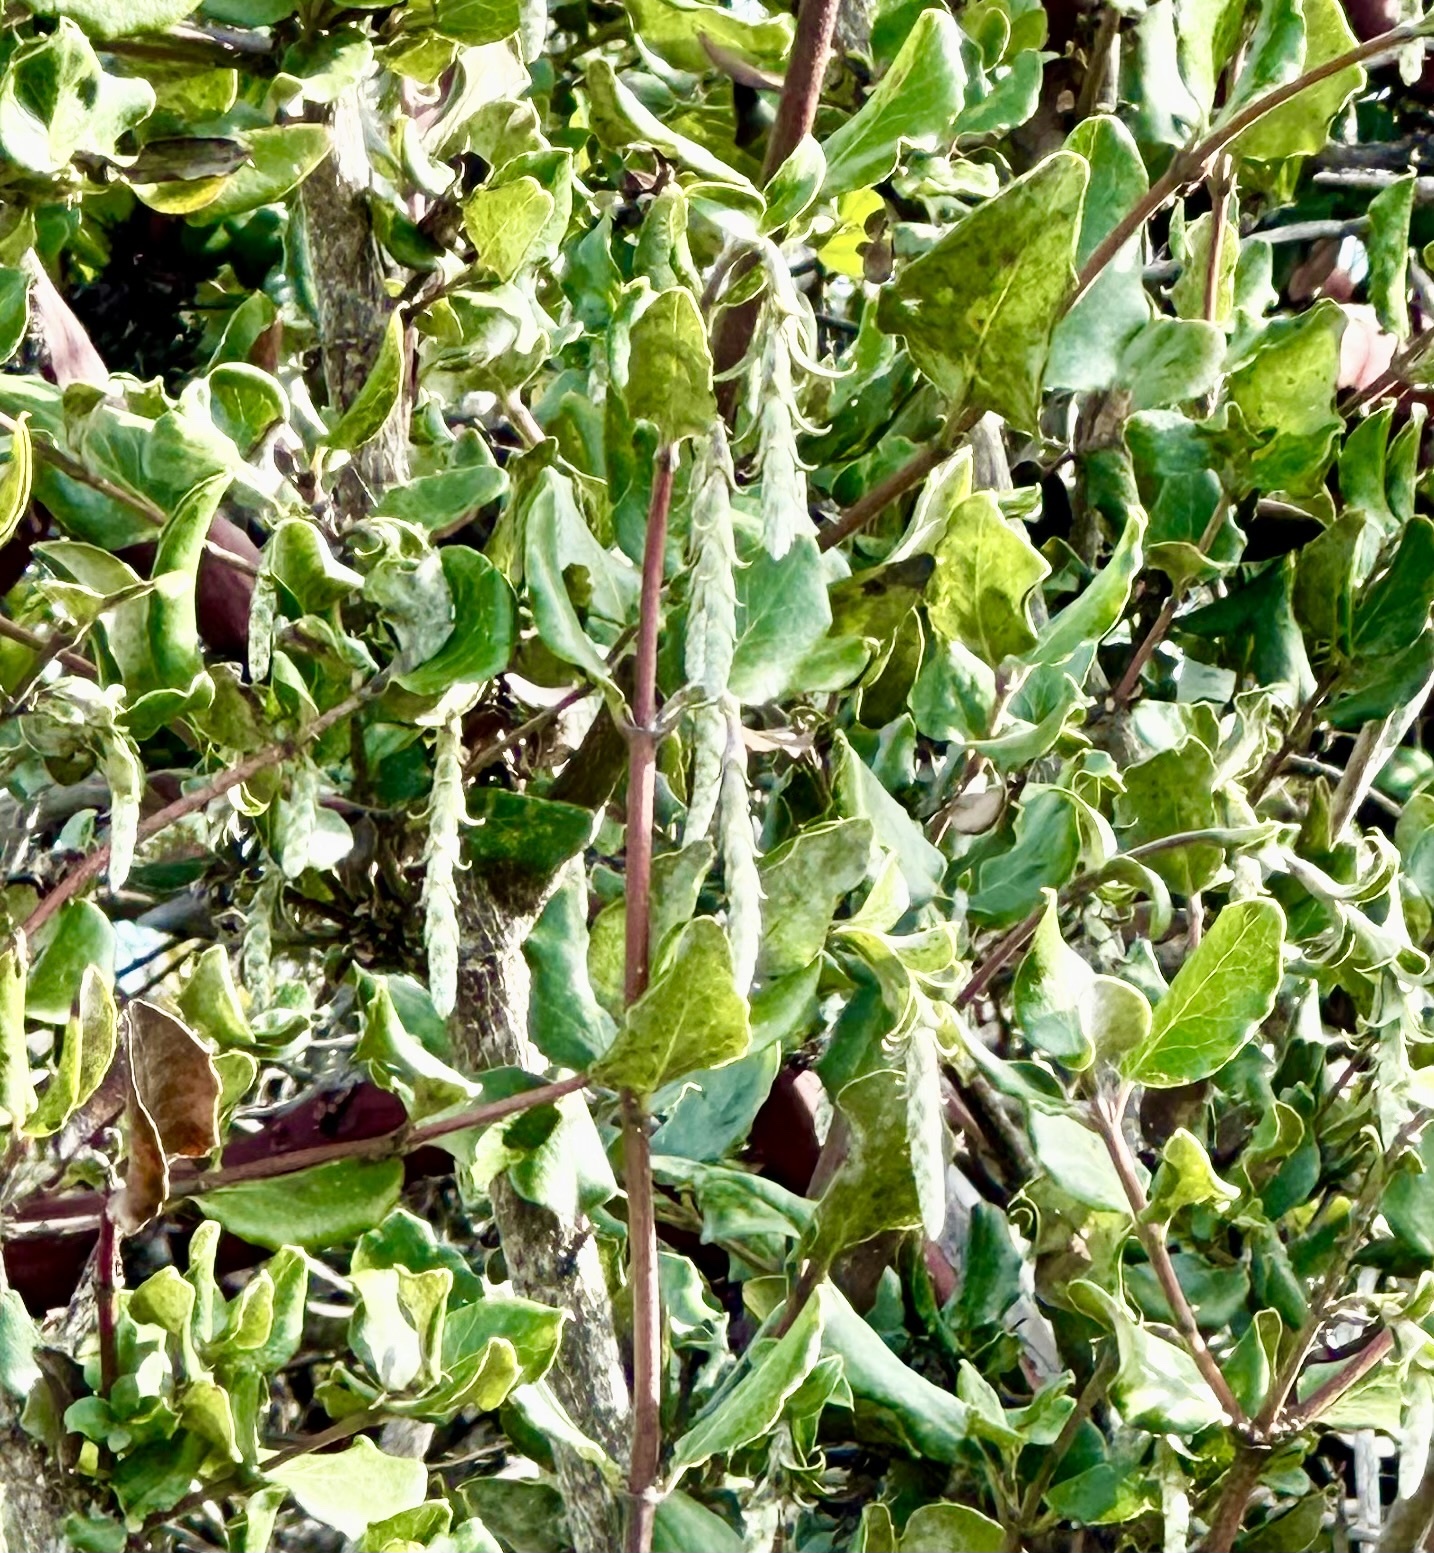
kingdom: Plantae
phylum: Tracheophyta
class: Magnoliopsida
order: Garryales
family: Garryaceae
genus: Garrya
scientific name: Garrya elliptica
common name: Silk-tassel
